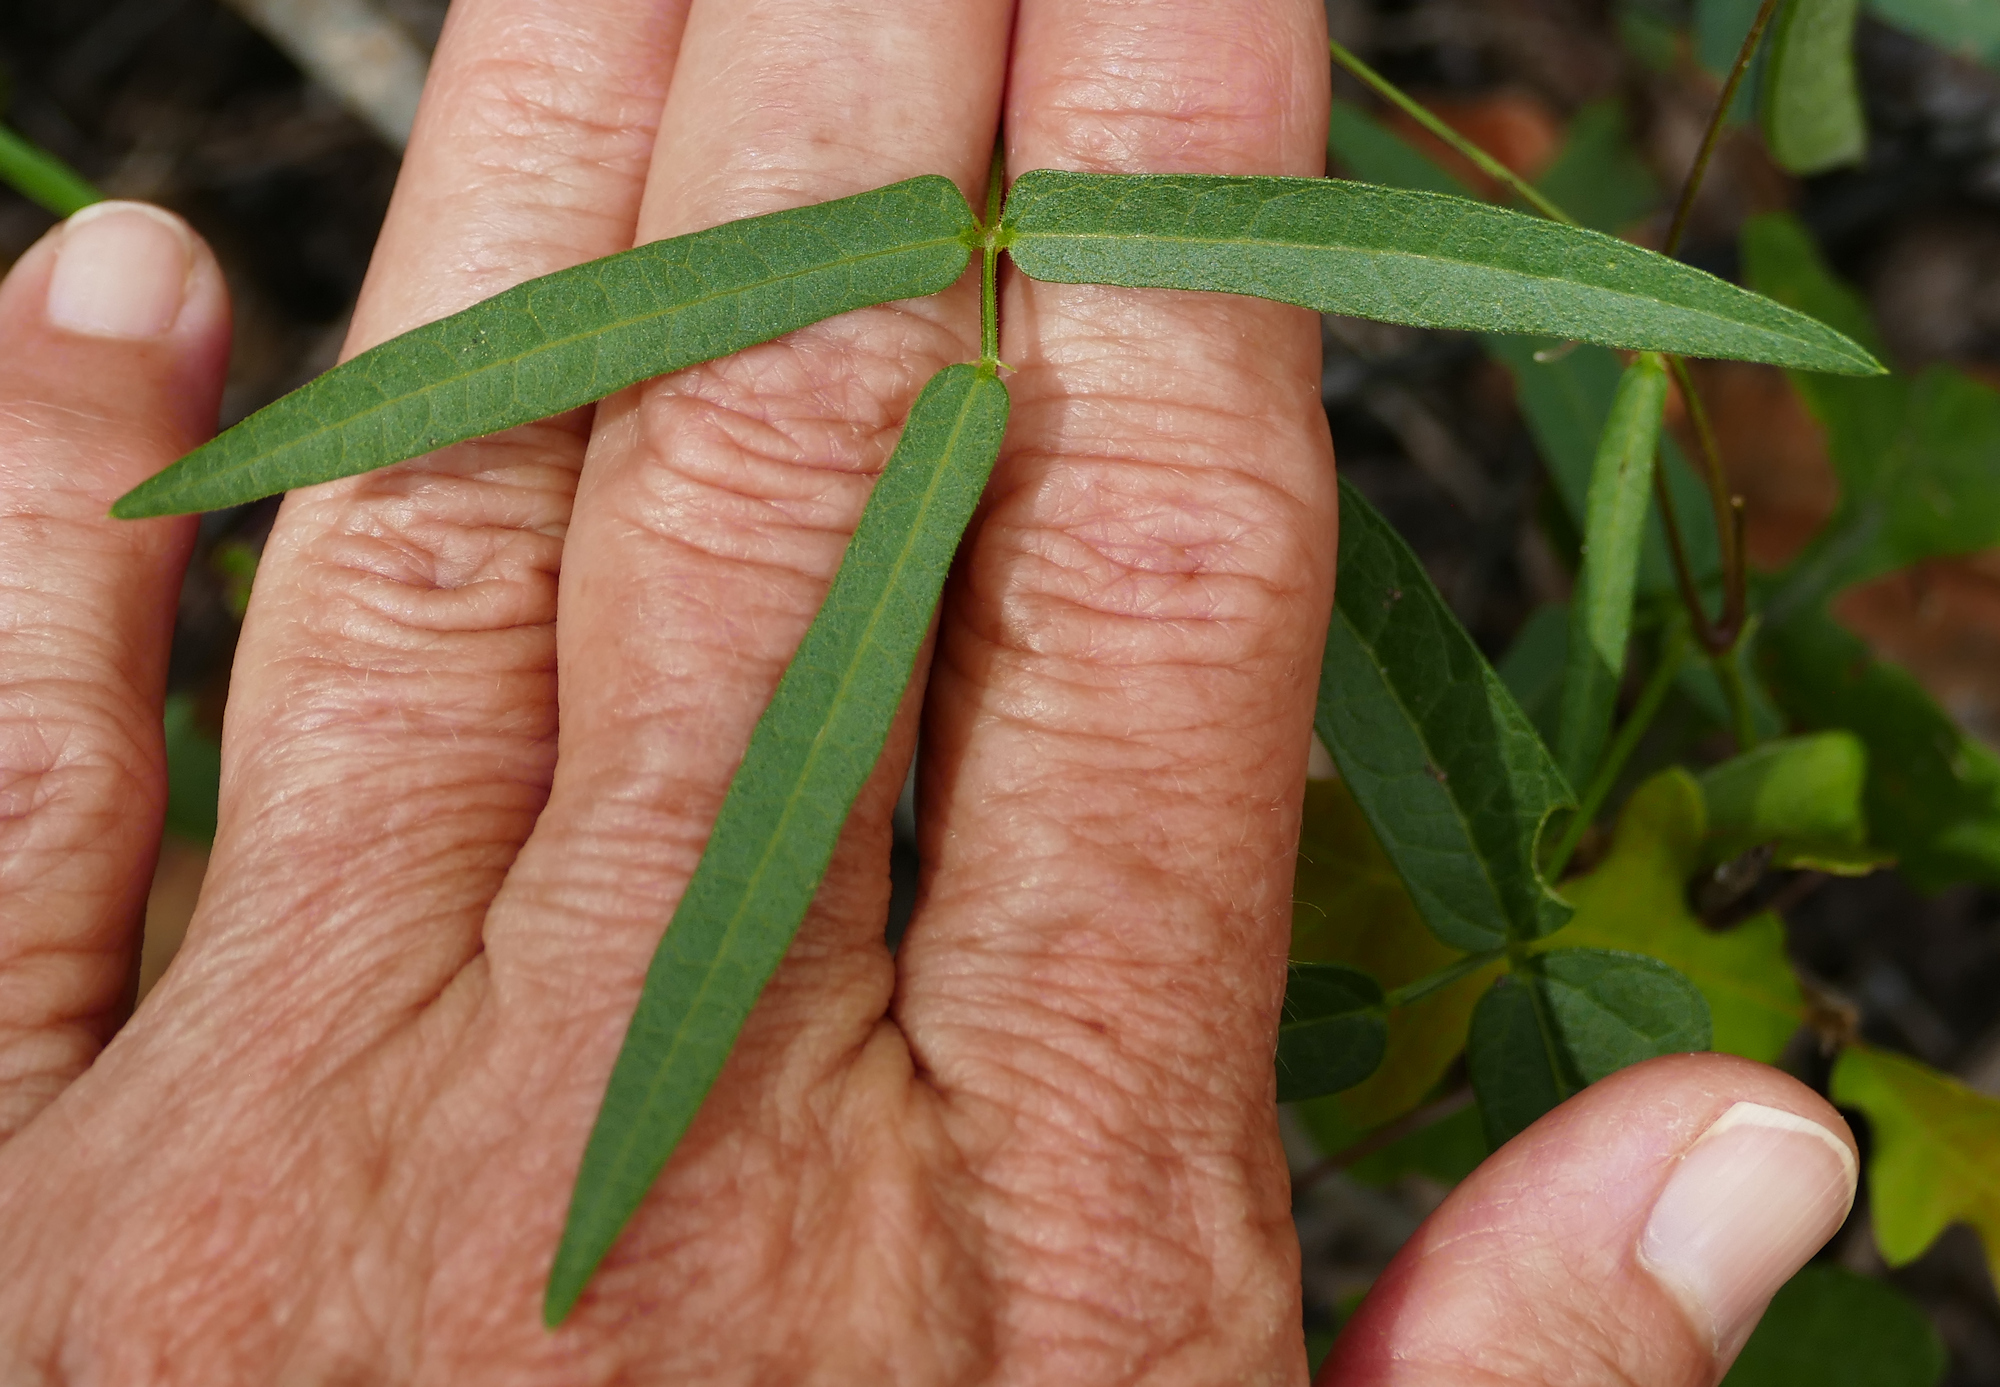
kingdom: Plantae
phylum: Tracheophyta
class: Magnoliopsida
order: Fabales
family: Fabaceae
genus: Phaseolus
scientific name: Phaseolus angustissimus
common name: Slimleaf bean
